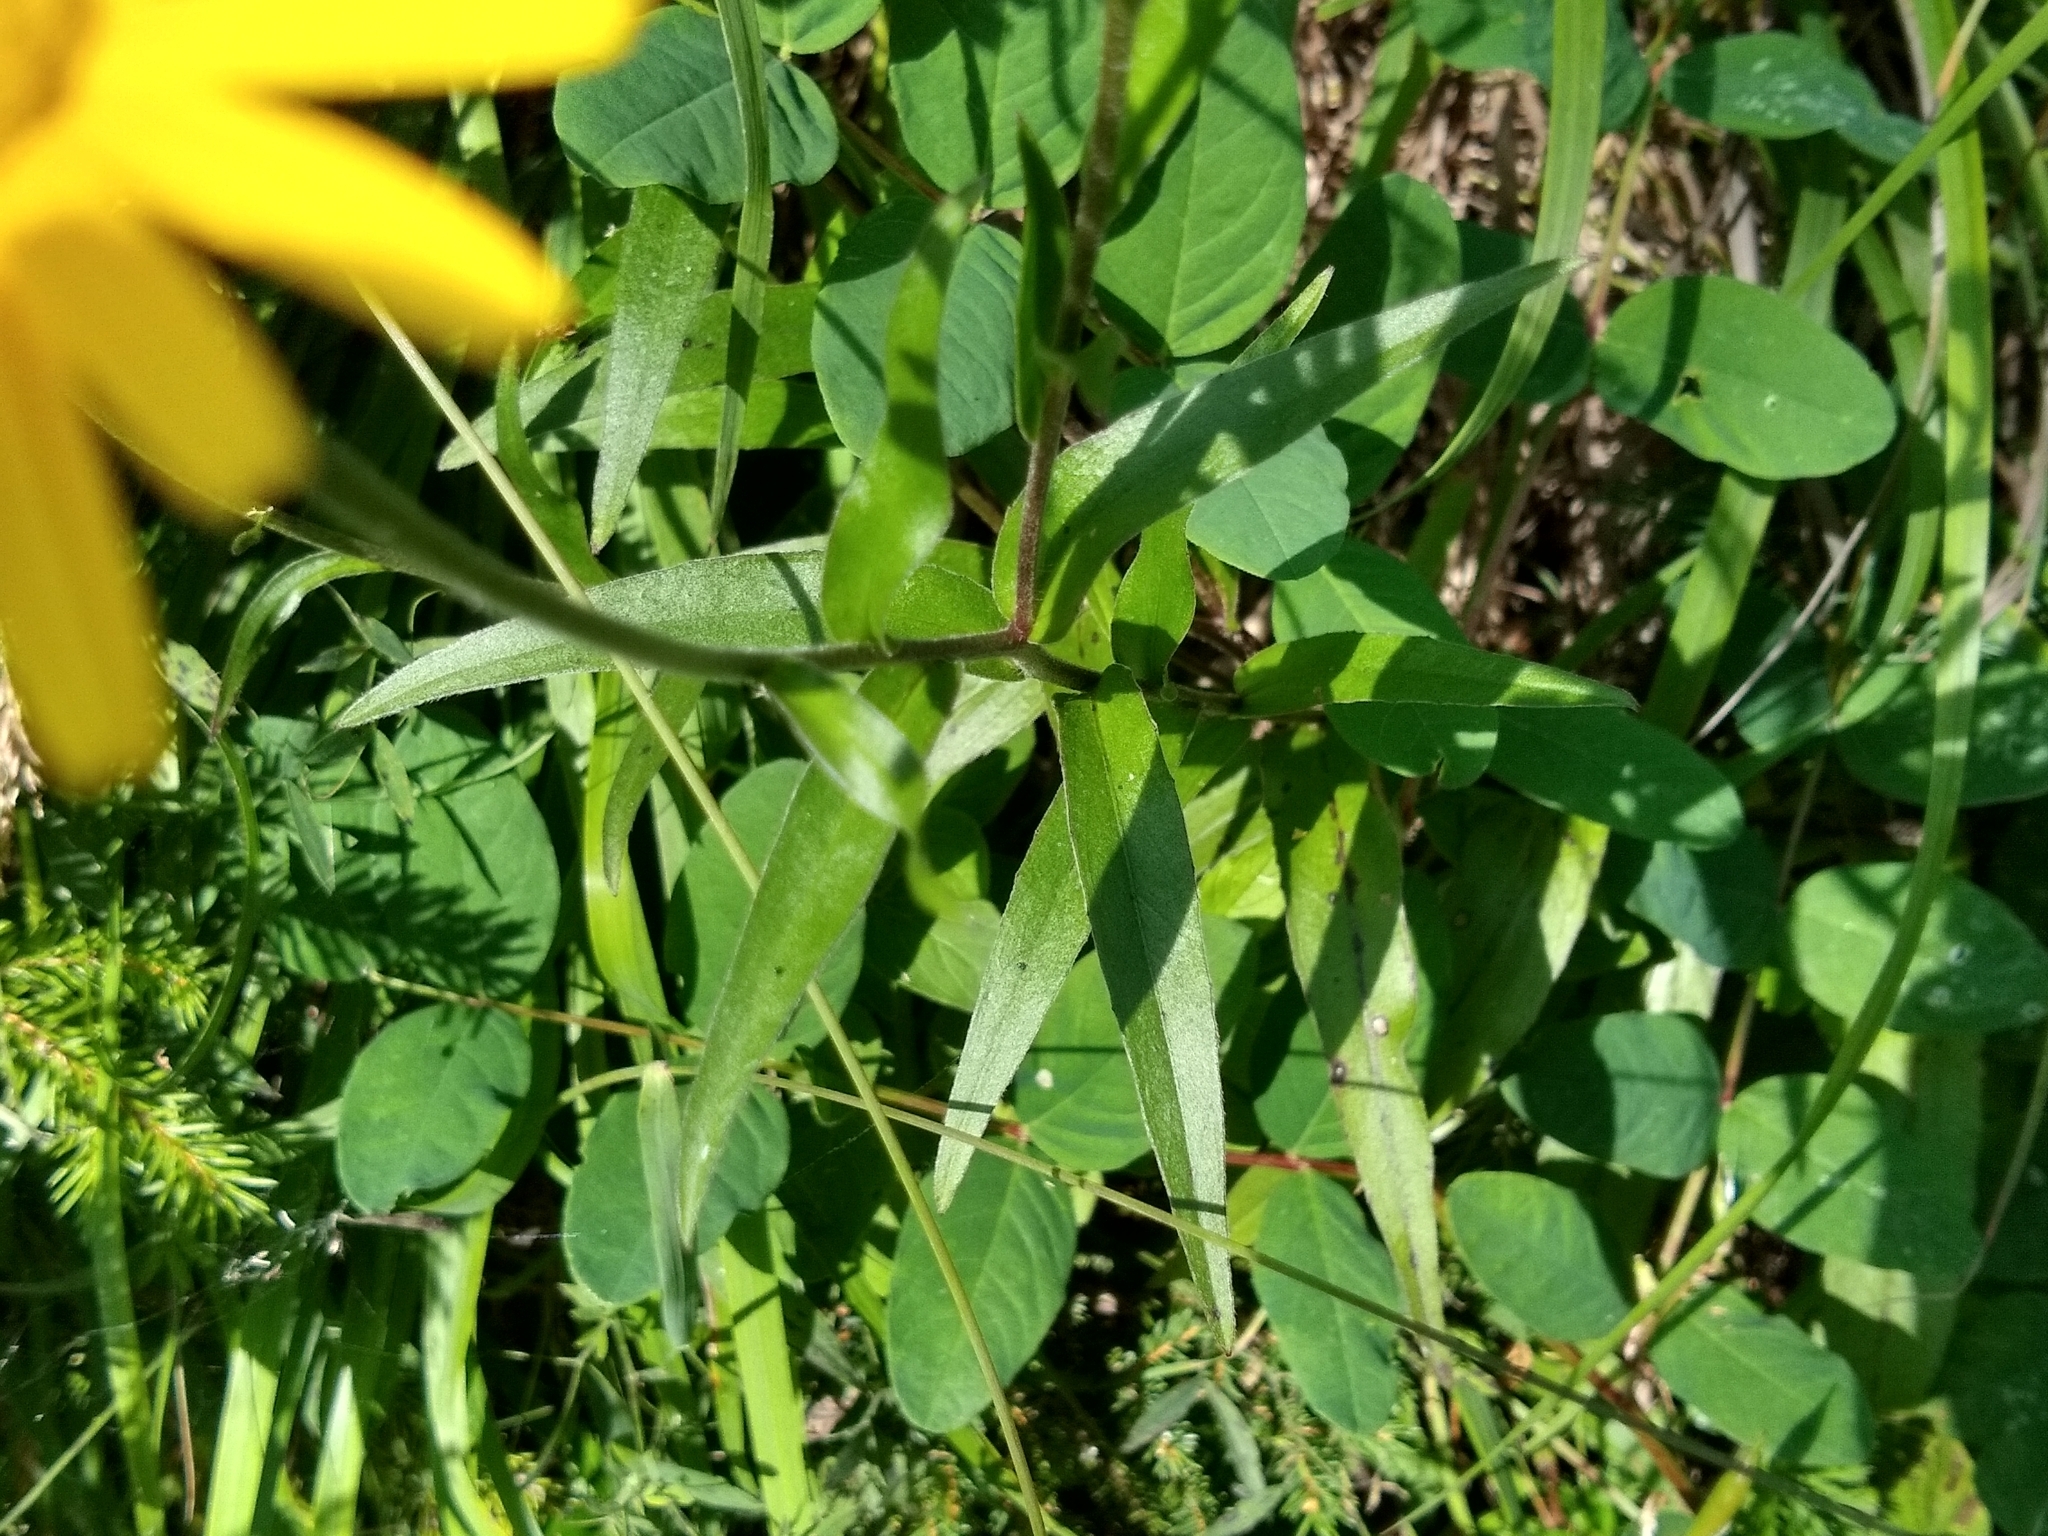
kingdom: Plantae
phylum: Tracheophyta
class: Magnoliopsida
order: Asterales
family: Asteraceae
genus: Buphthalmum
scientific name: Buphthalmum salicifolium
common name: Willow-leaved yellow-oxeye
